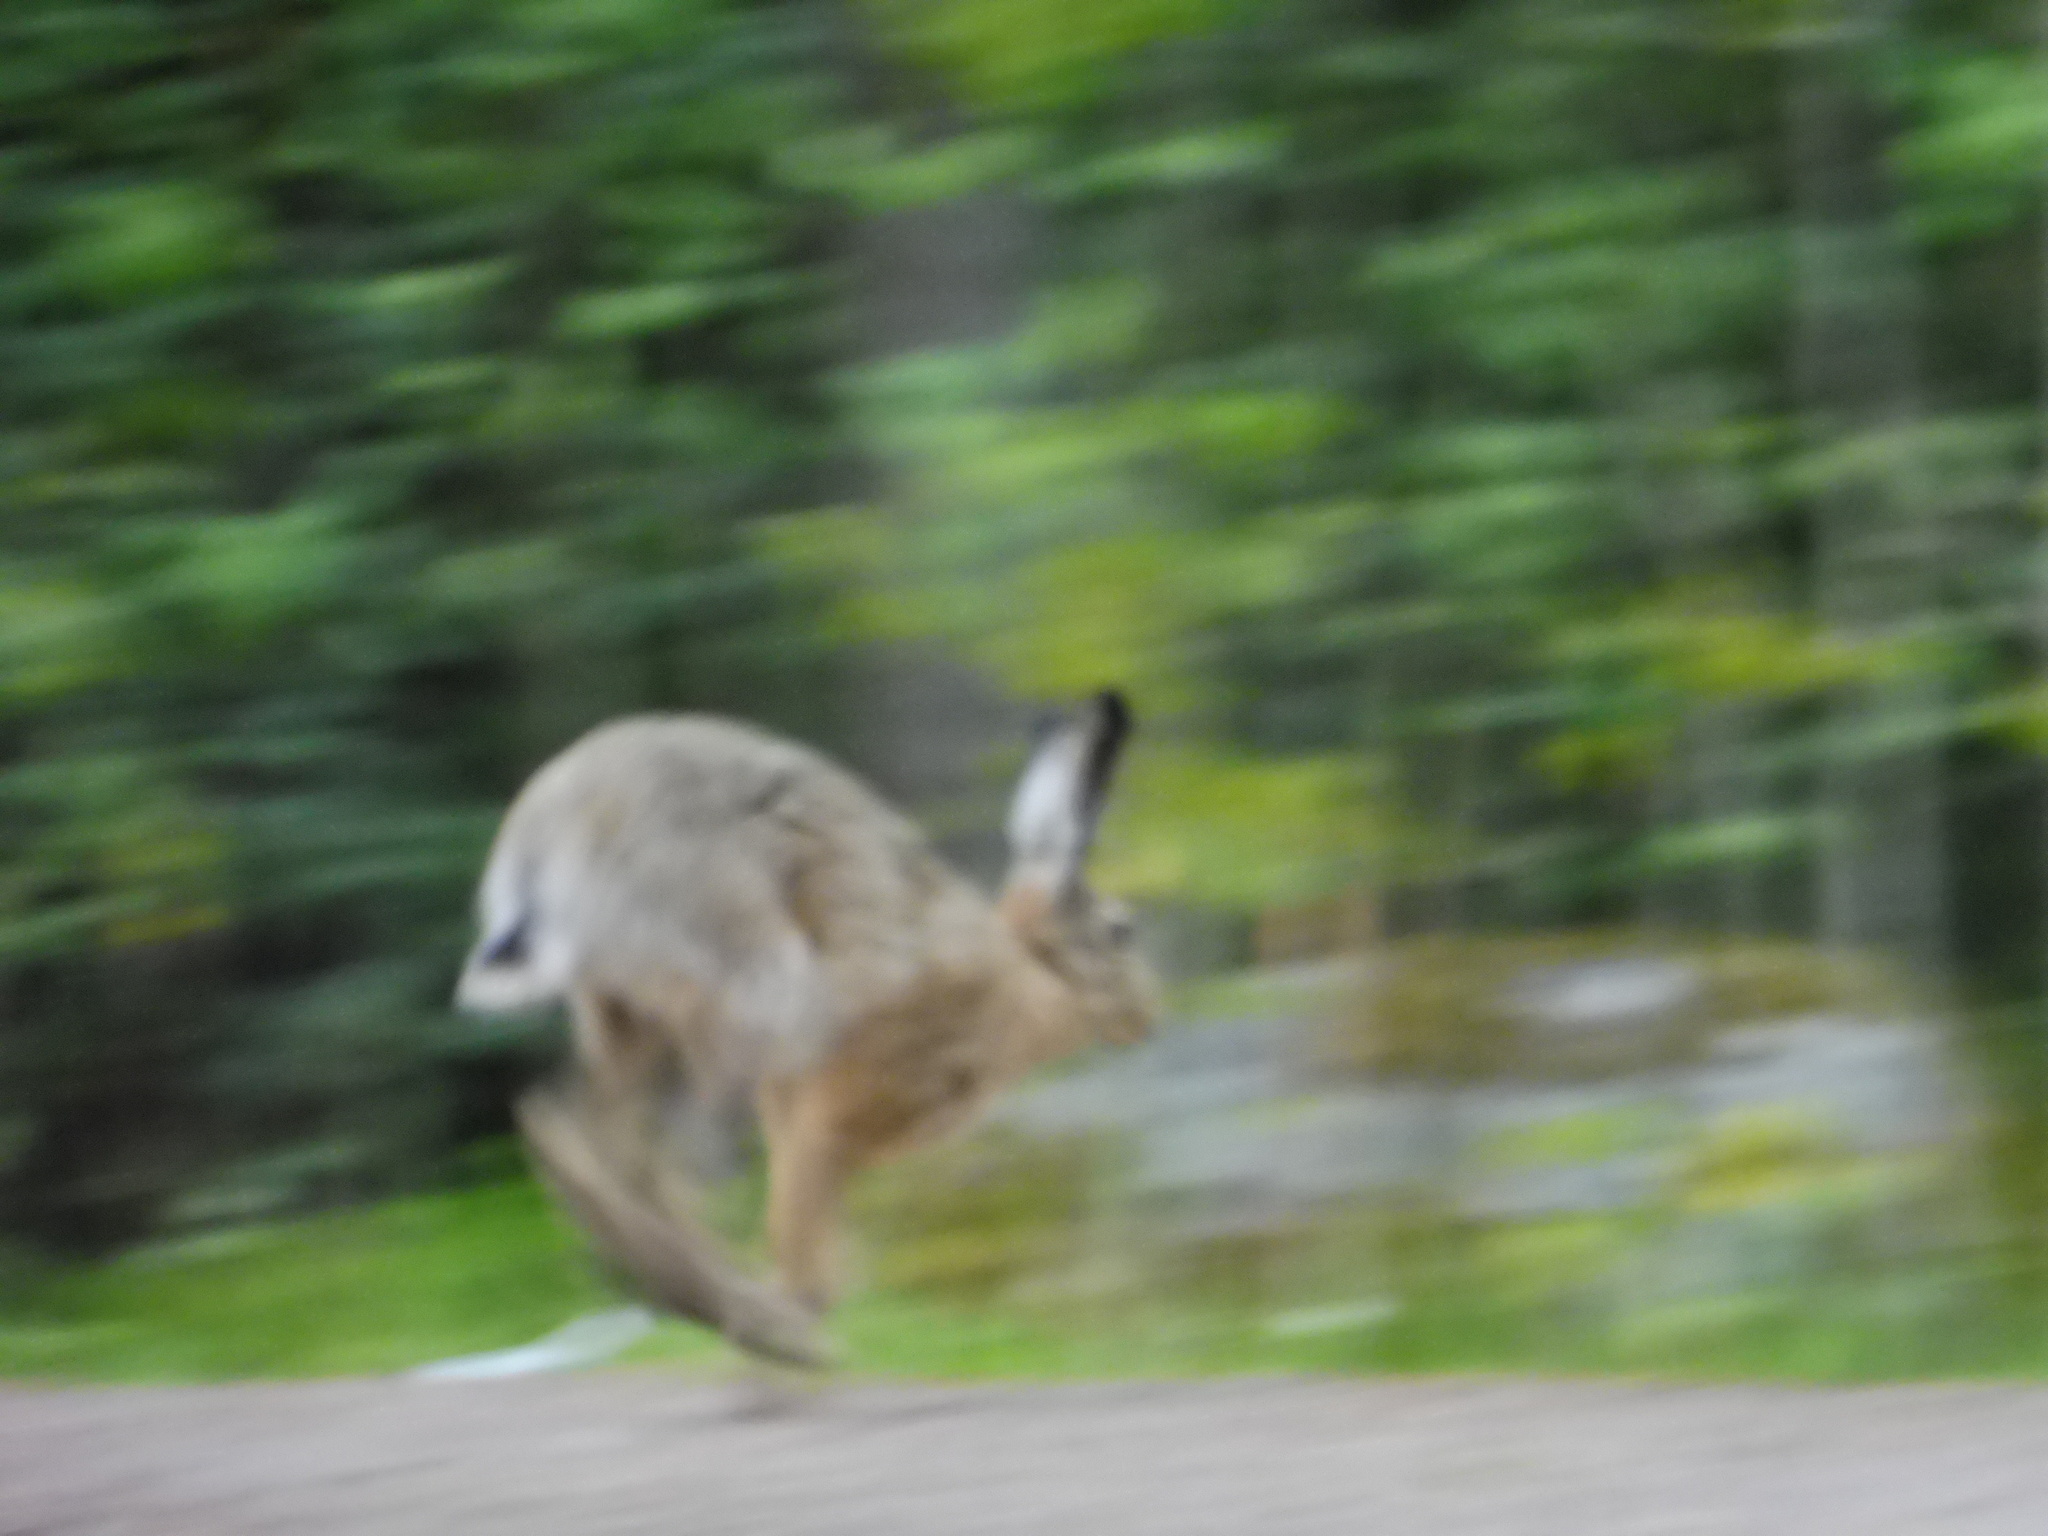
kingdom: Animalia
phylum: Chordata
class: Mammalia
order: Lagomorpha
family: Leporidae
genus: Lepus
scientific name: Lepus europaeus
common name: European hare
